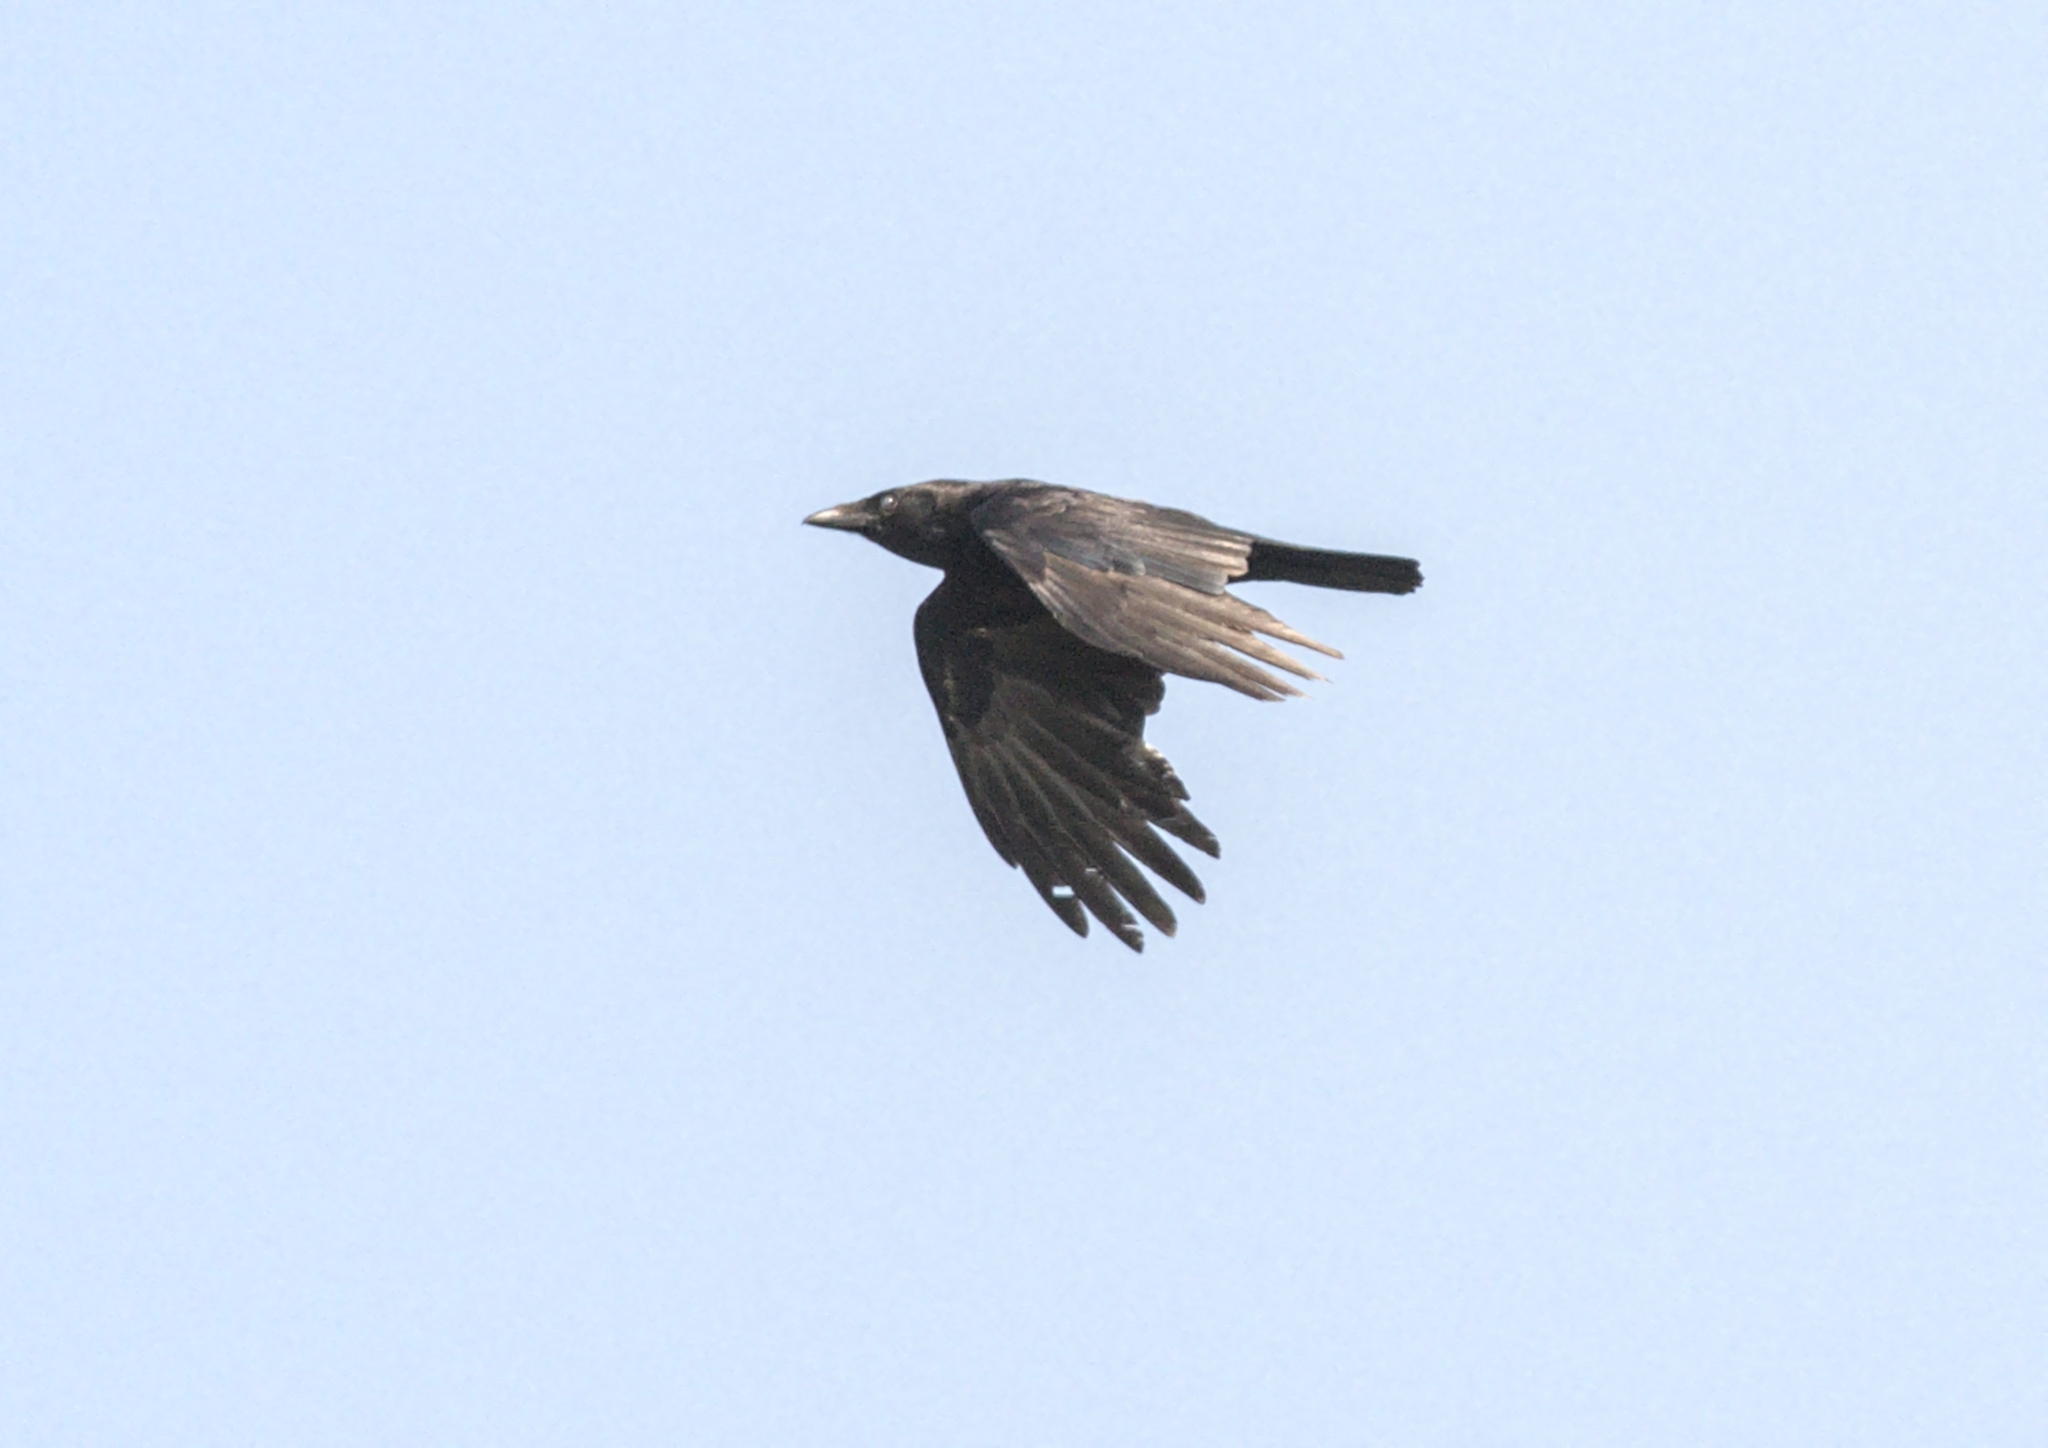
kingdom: Animalia
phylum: Chordata
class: Aves
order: Passeriformes
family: Corvidae
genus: Corvus
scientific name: Corvus corone
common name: Carrion crow
